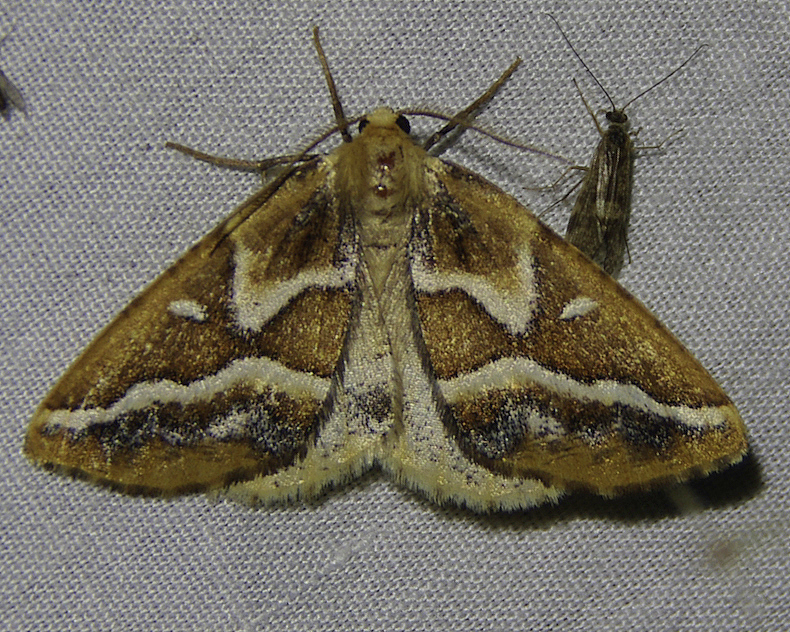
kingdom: Animalia
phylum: Arthropoda
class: Insecta
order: Lepidoptera
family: Geometridae
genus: Caripeta
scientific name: Caripeta angustiorata
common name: Brown pine looper
